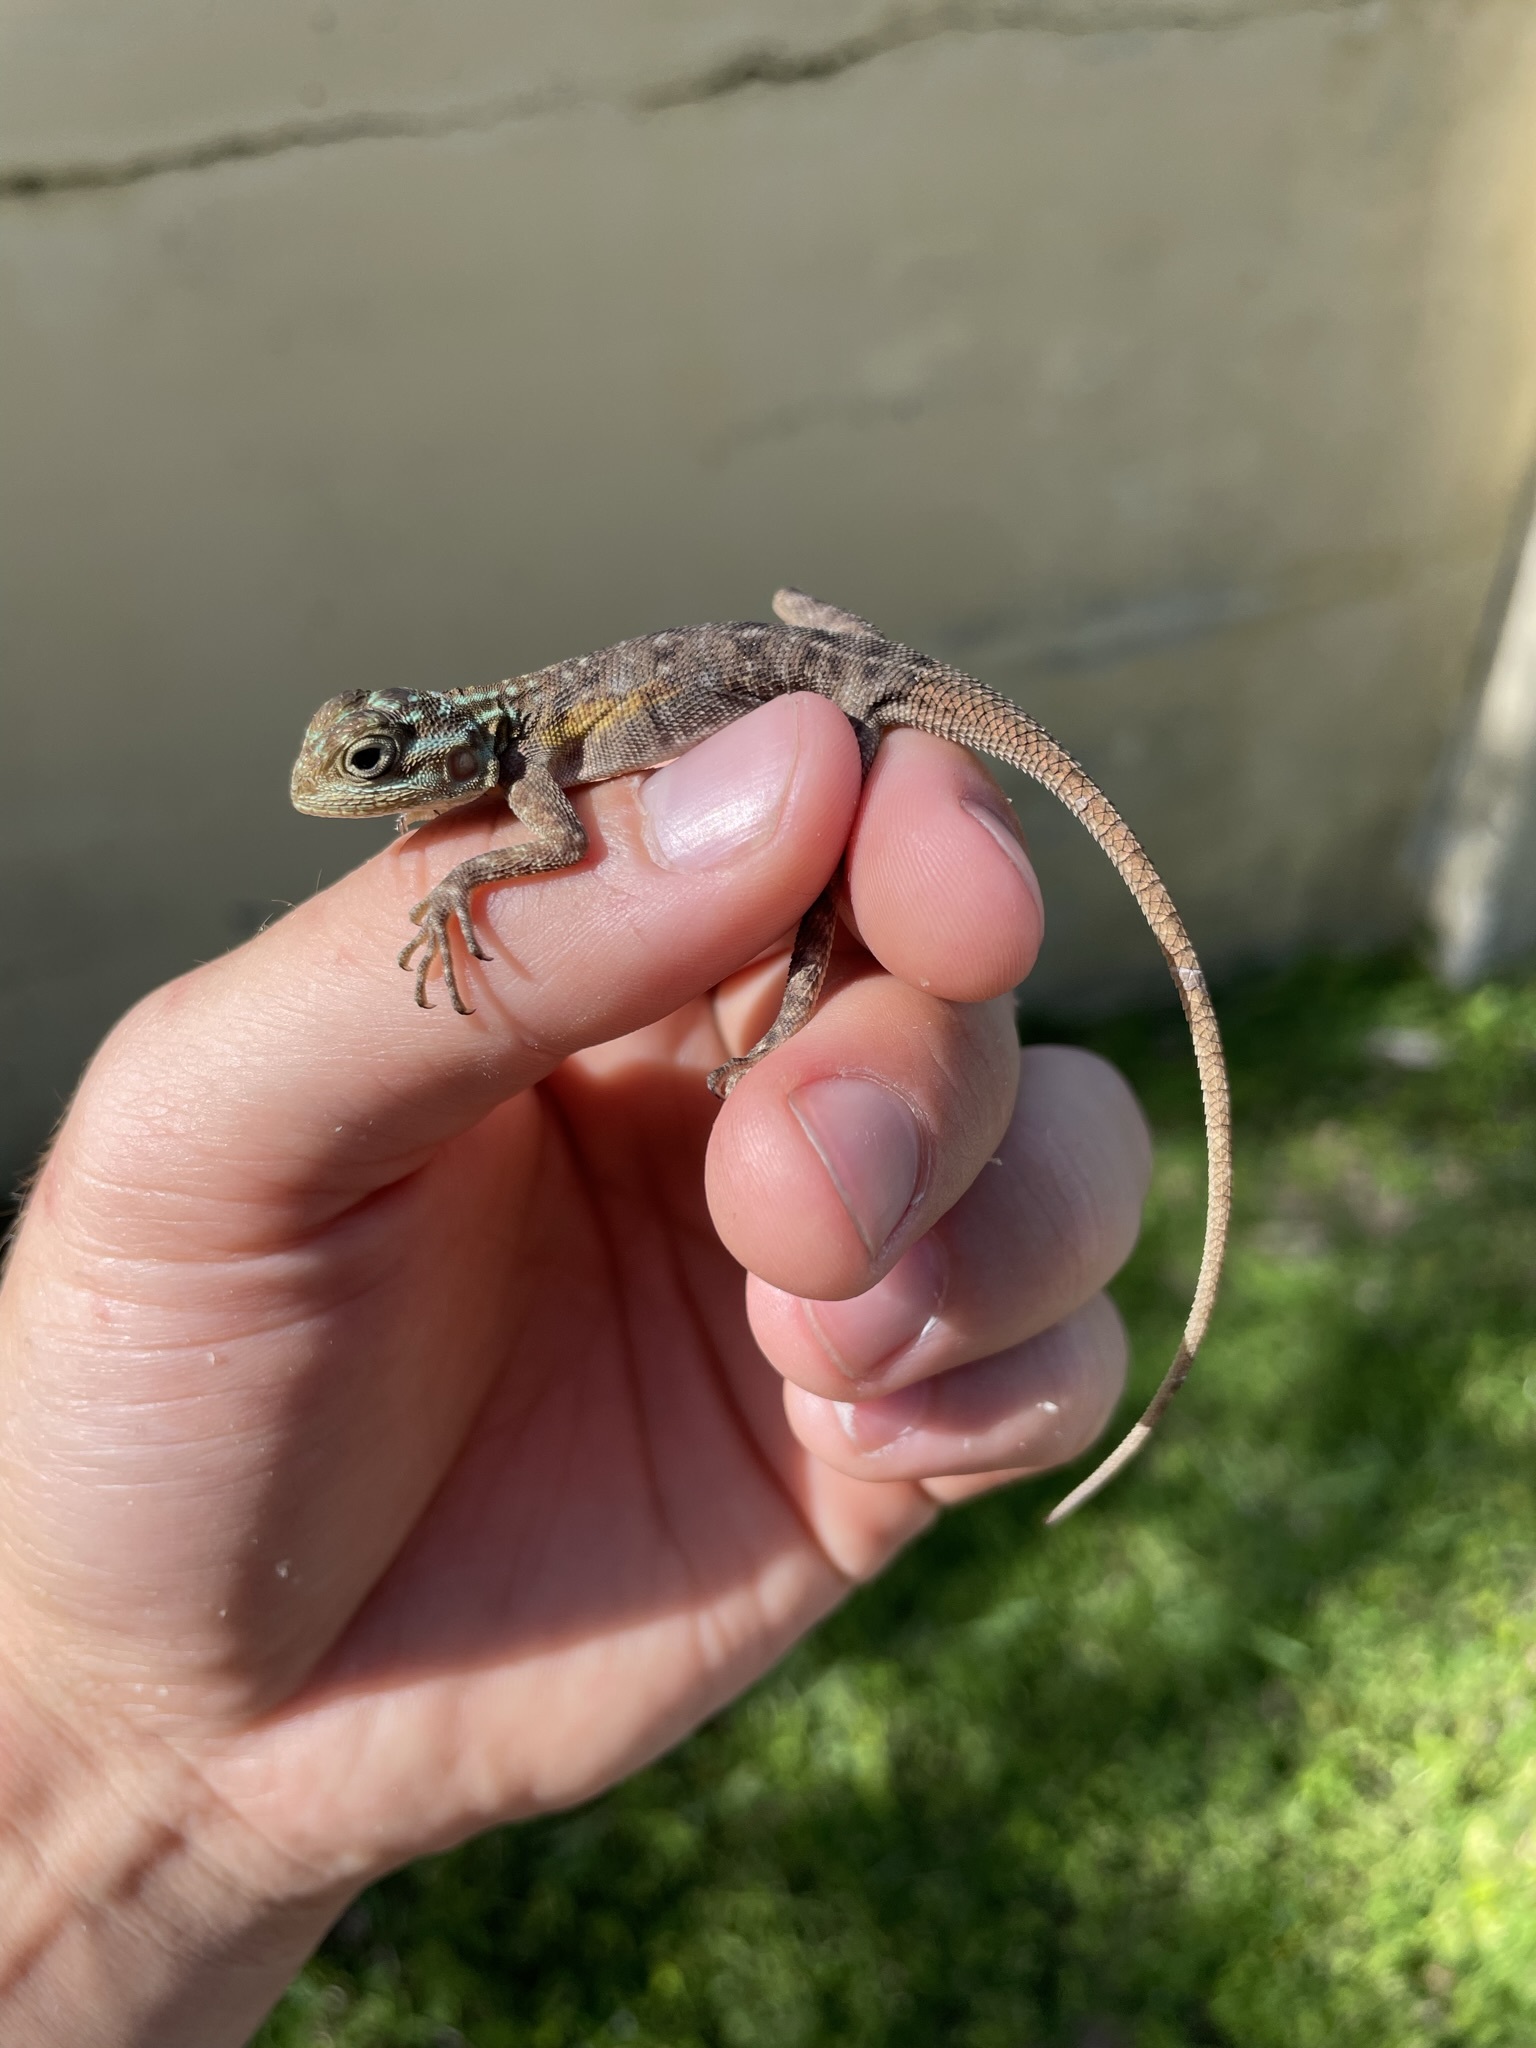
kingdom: Animalia
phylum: Chordata
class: Squamata
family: Agamidae
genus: Agama
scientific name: Agama picticauda
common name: Red-headed agama
